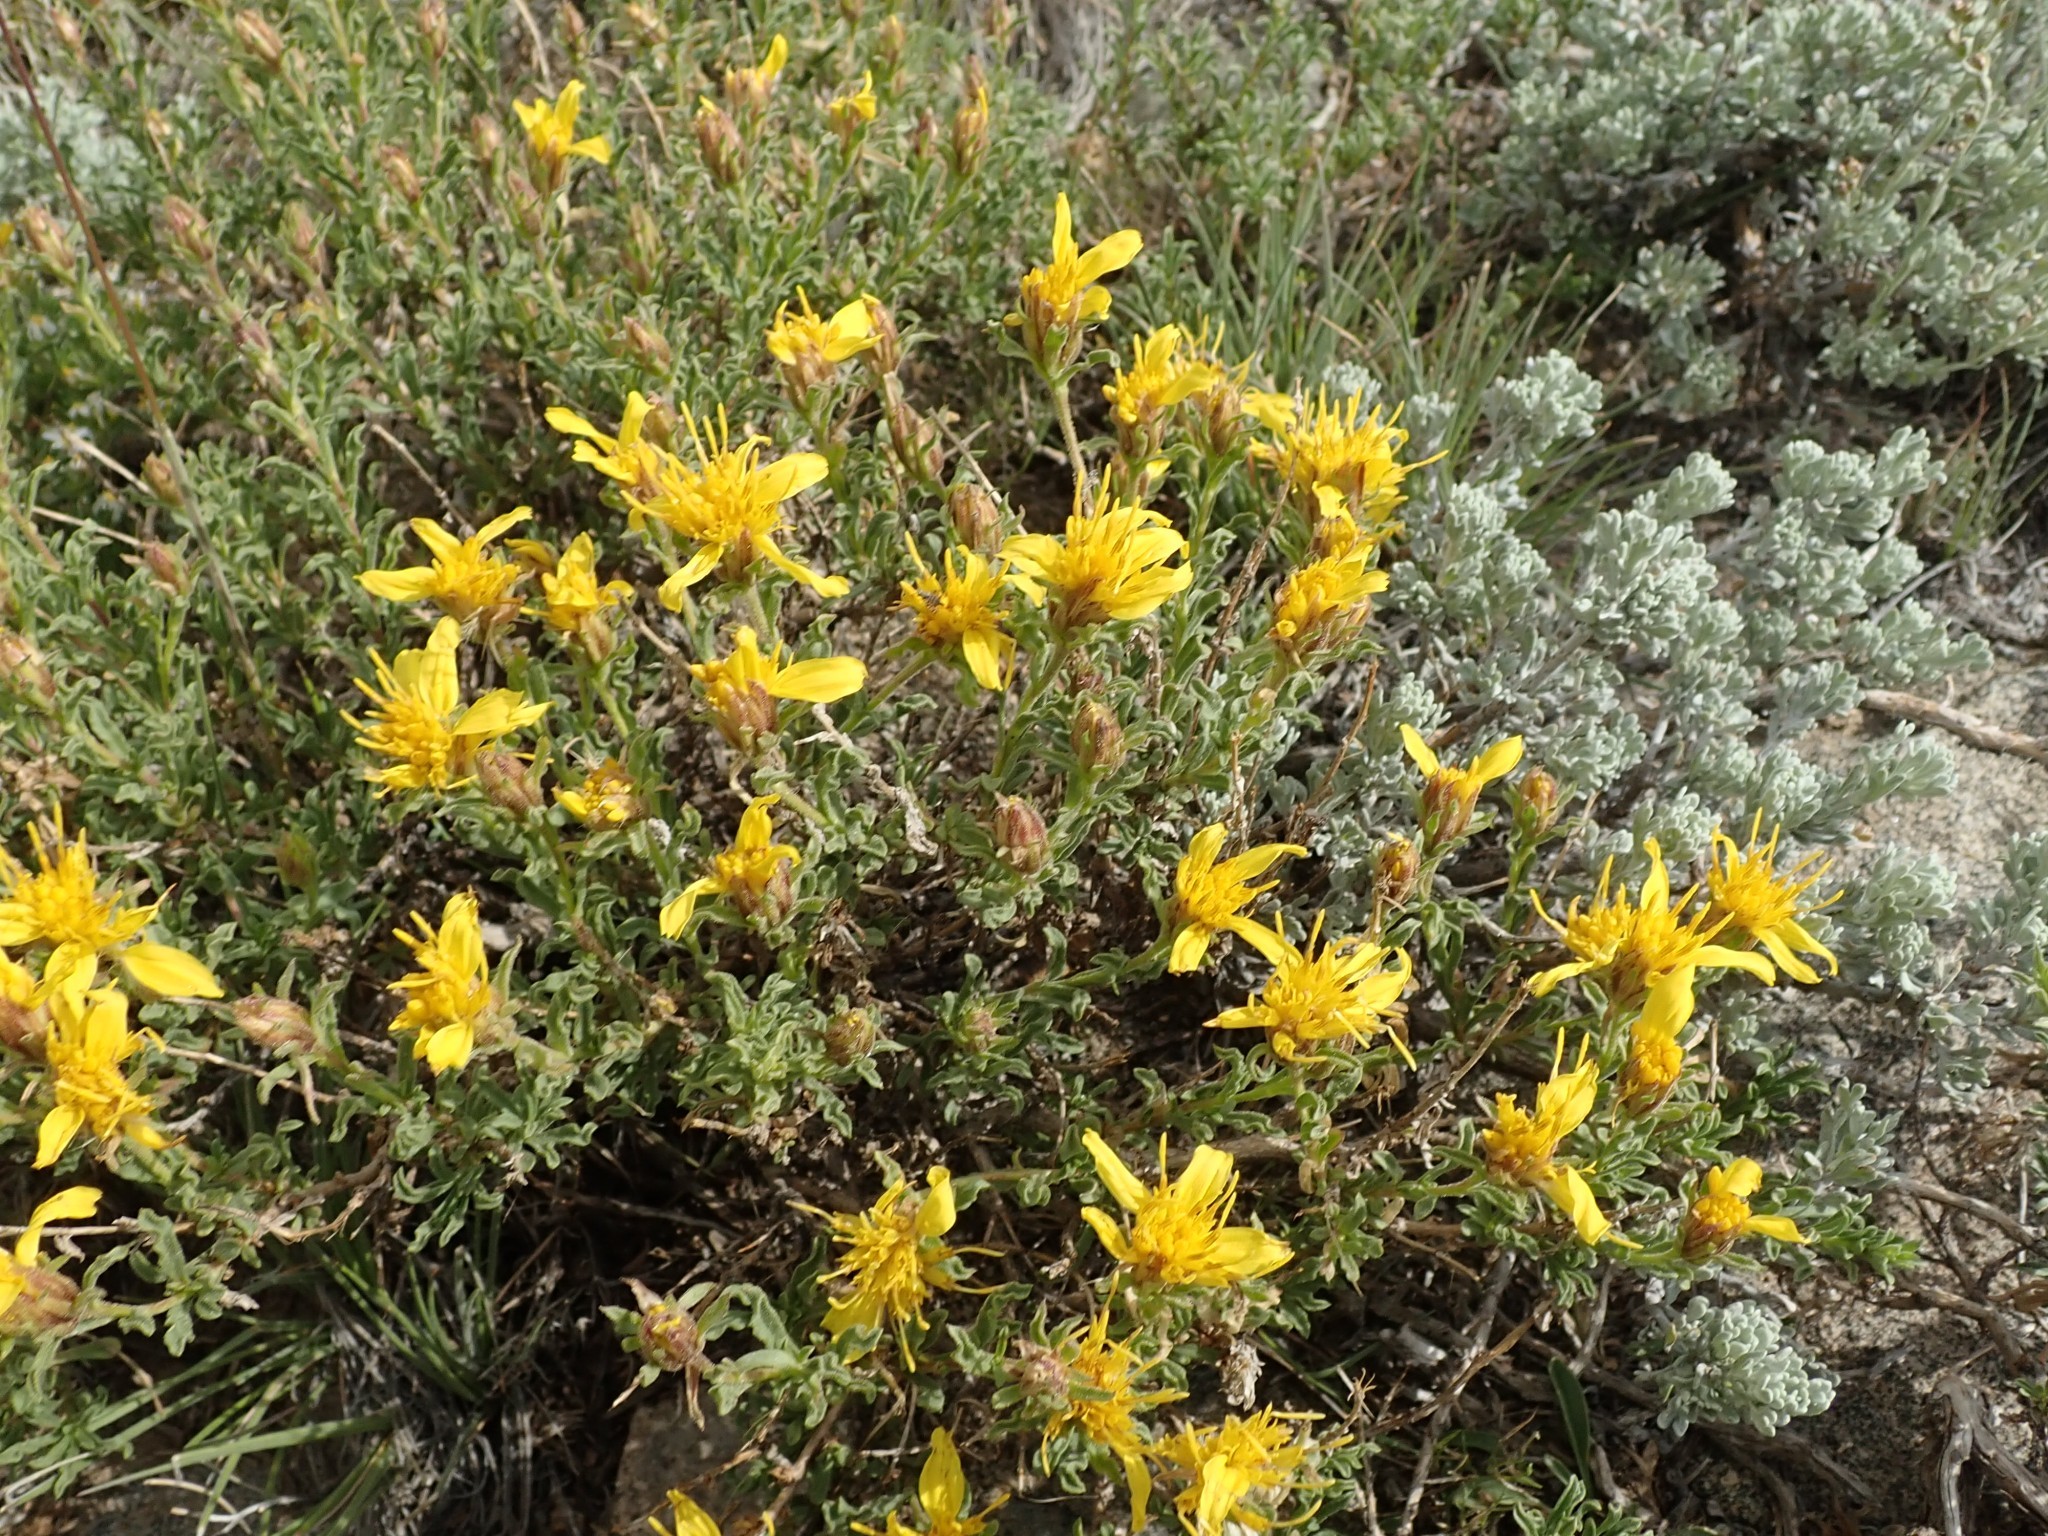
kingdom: Plantae
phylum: Tracheophyta
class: Magnoliopsida
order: Asterales
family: Asteraceae
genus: Ericameria
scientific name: Ericameria suffruticosa
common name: Goldenweed
